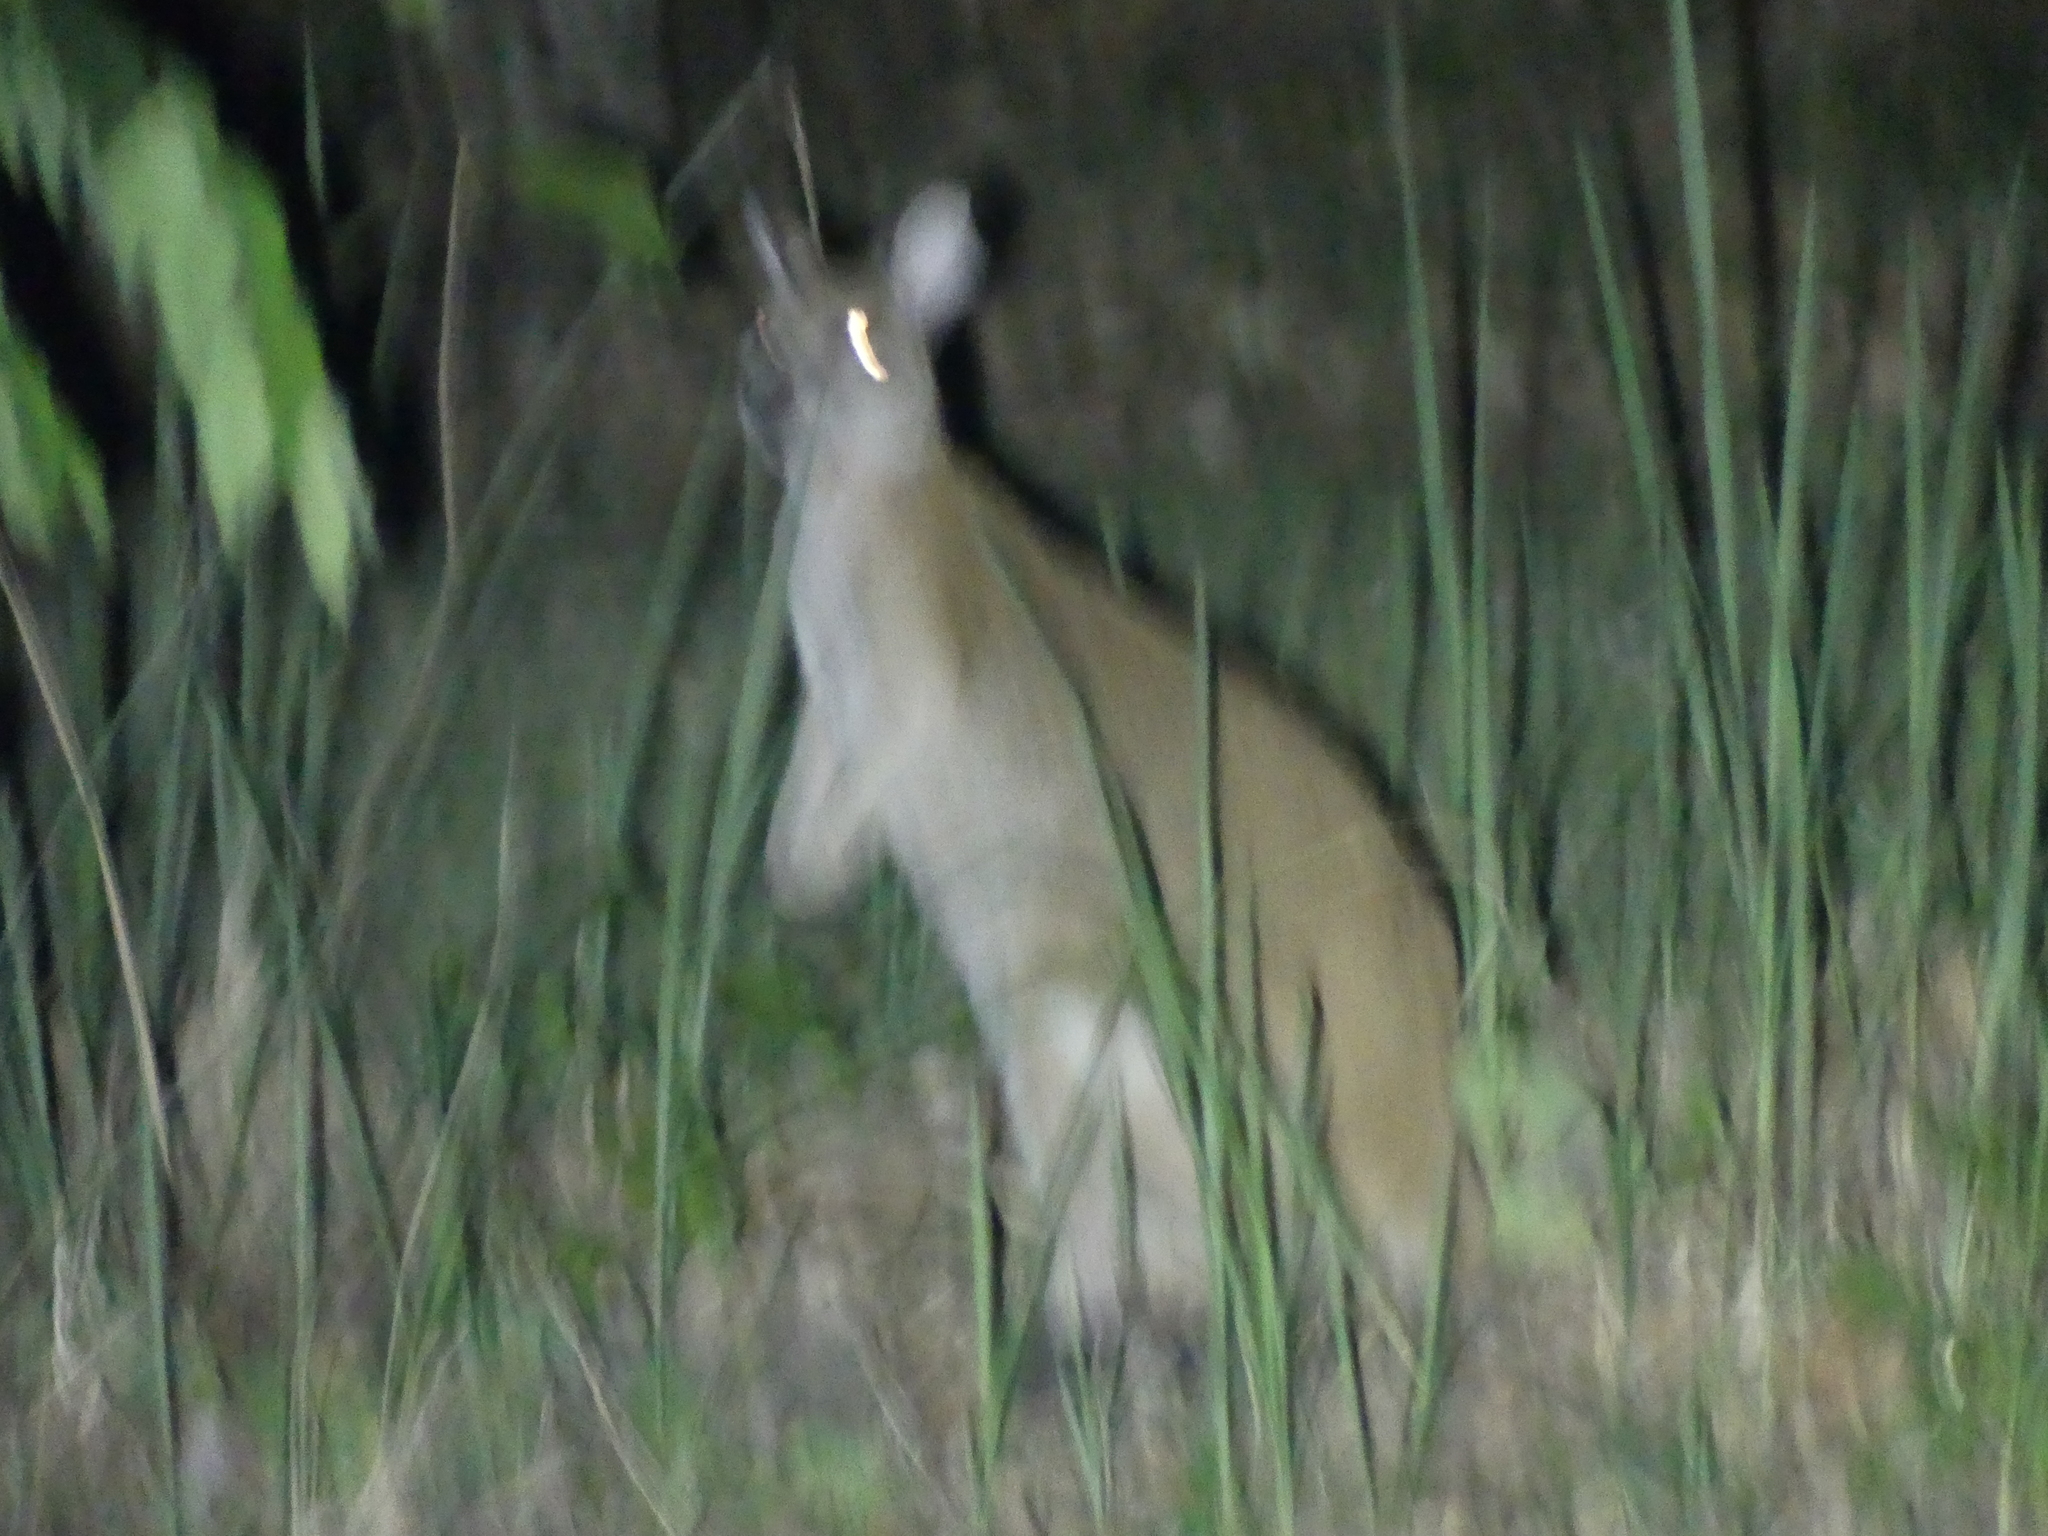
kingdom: Animalia
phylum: Chordata
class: Mammalia
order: Diprotodontia
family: Macropodidae
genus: Macropus
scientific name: Macropus agilis
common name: Agile wallaby
